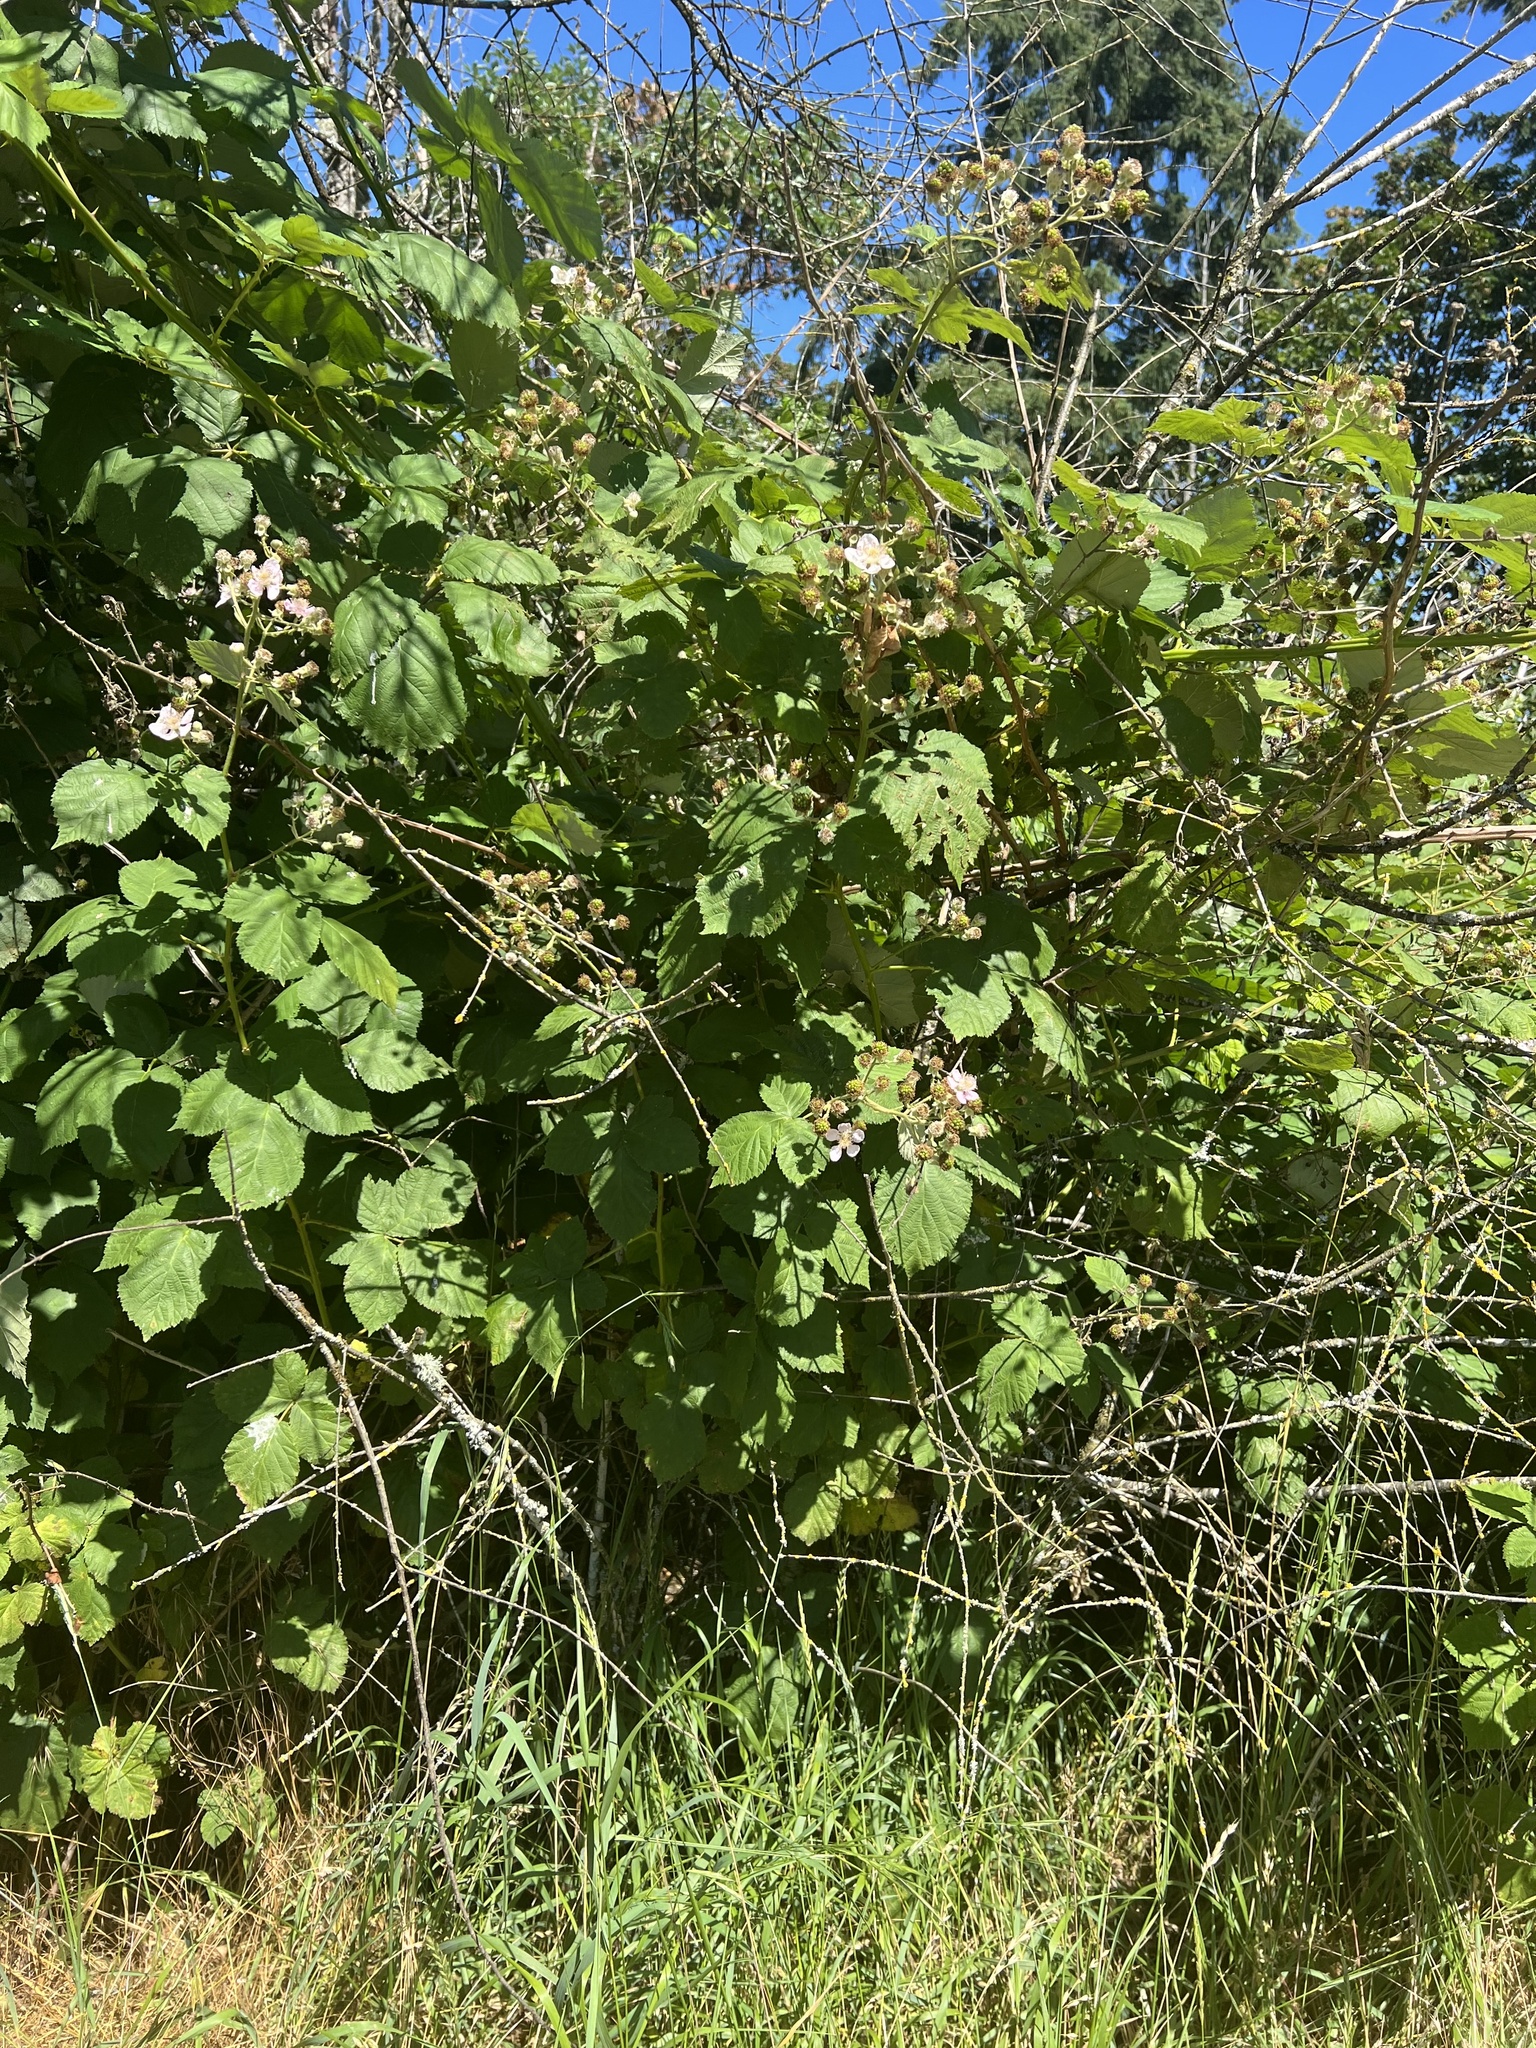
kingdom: Plantae
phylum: Tracheophyta
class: Magnoliopsida
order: Rosales
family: Rosaceae
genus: Rubus
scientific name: Rubus armeniacus
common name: Himalayan blackberry
